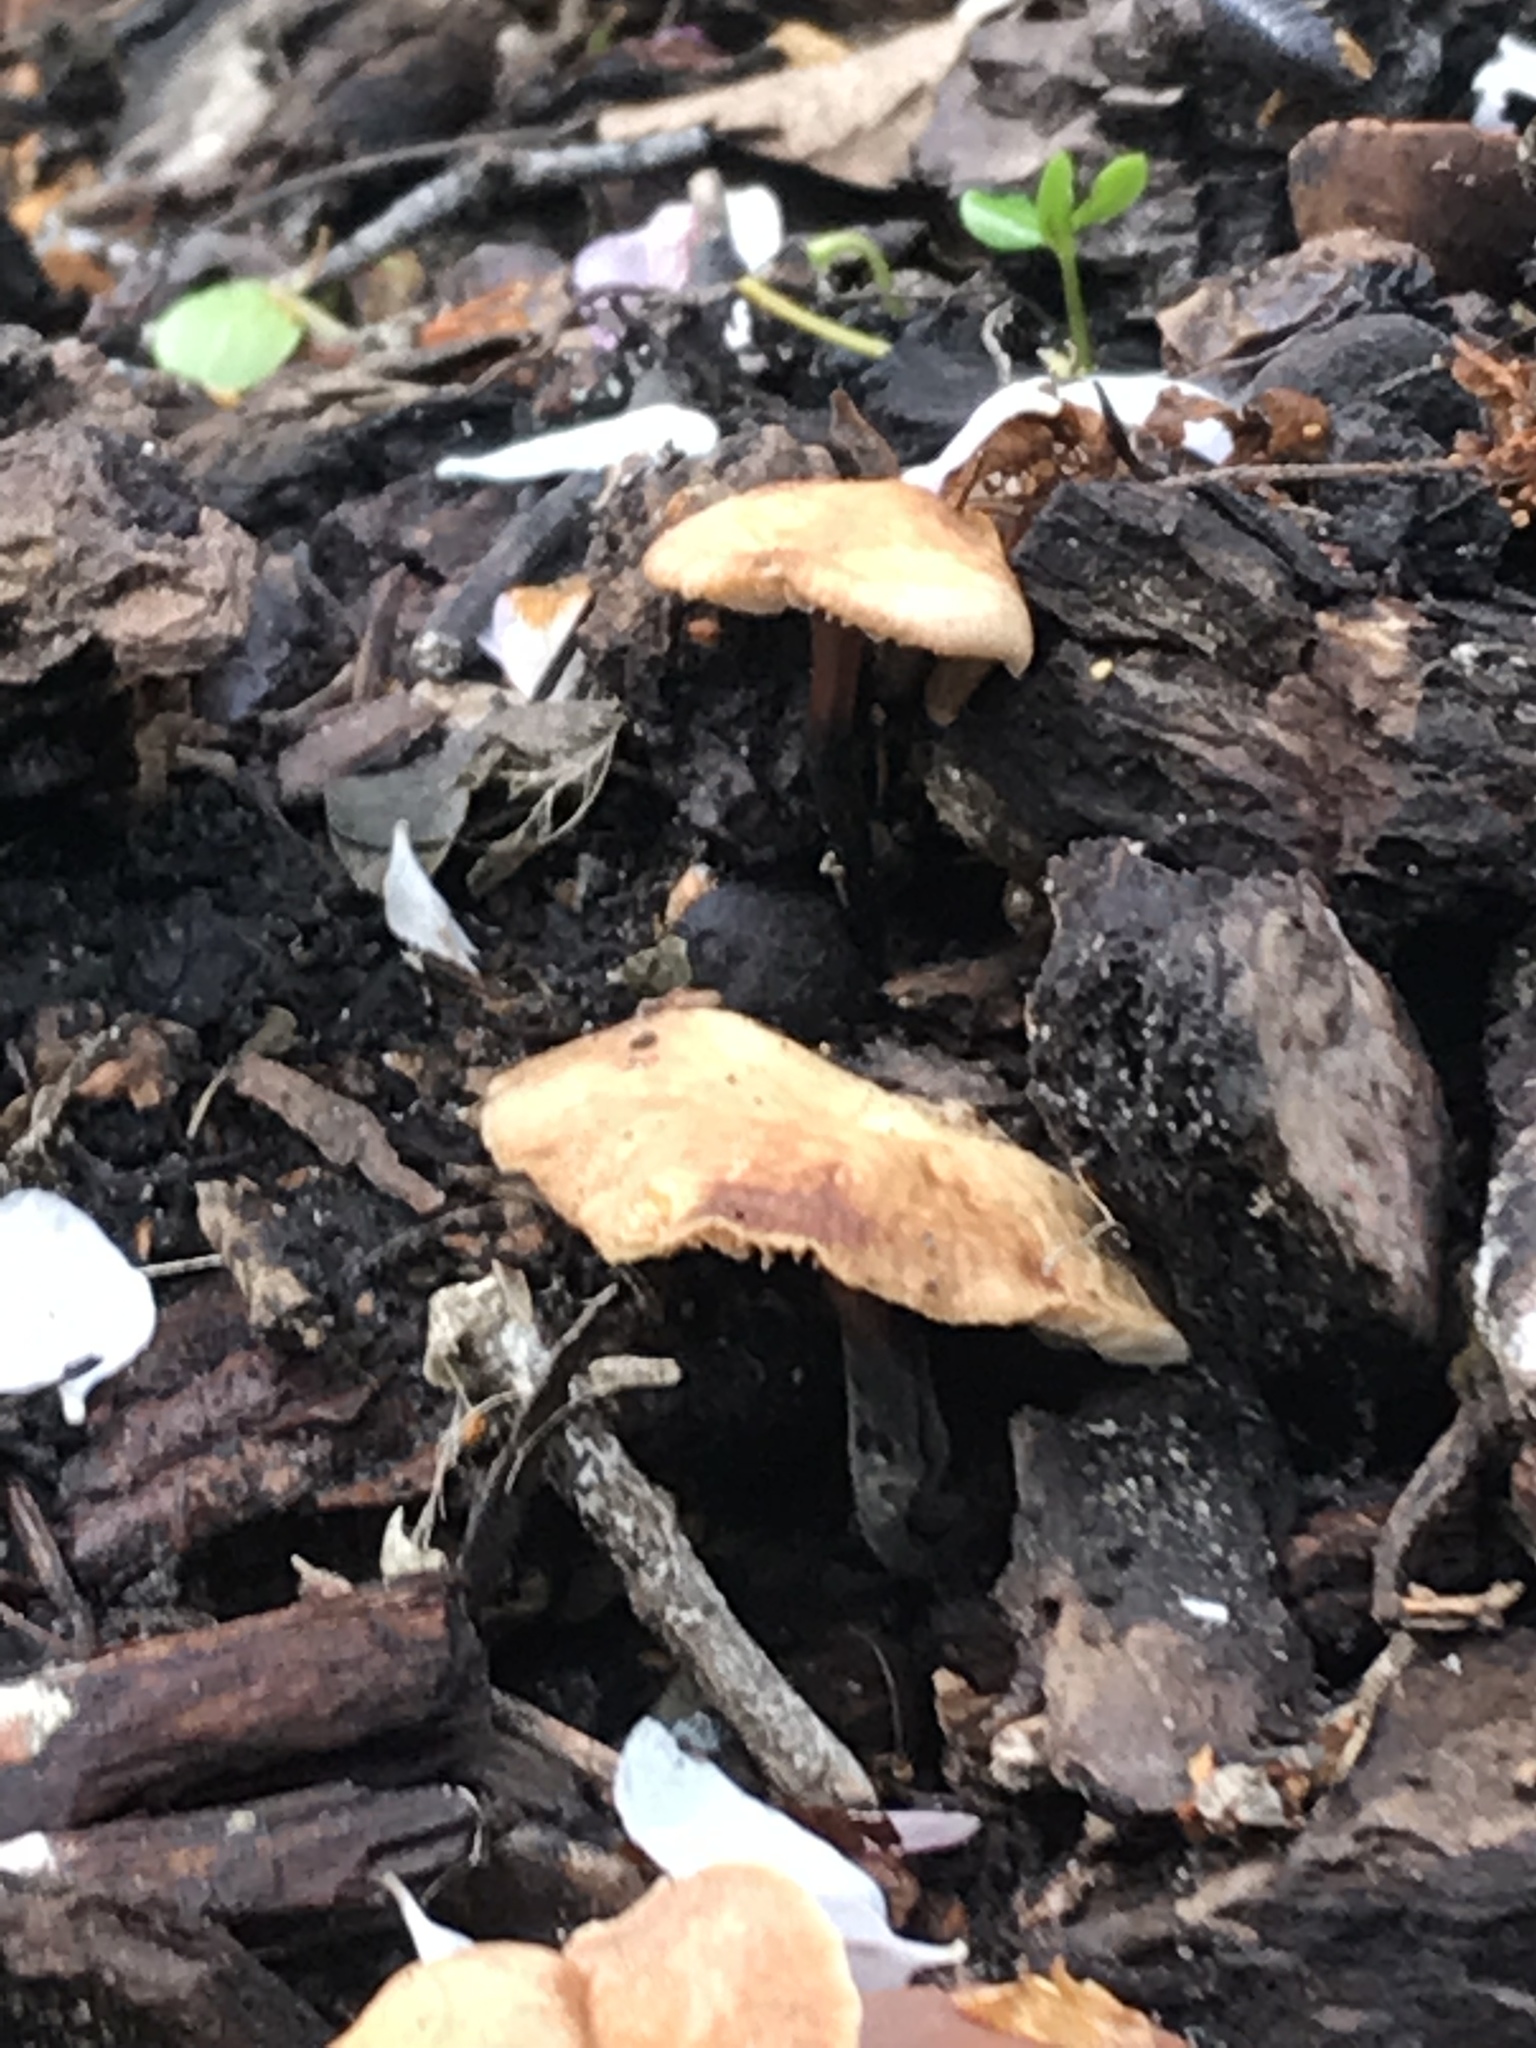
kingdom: Fungi
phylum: Basidiomycota
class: Agaricomycetes
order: Agaricales
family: Omphalotaceae
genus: Gymnopus
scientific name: Gymnopus brassicolens
